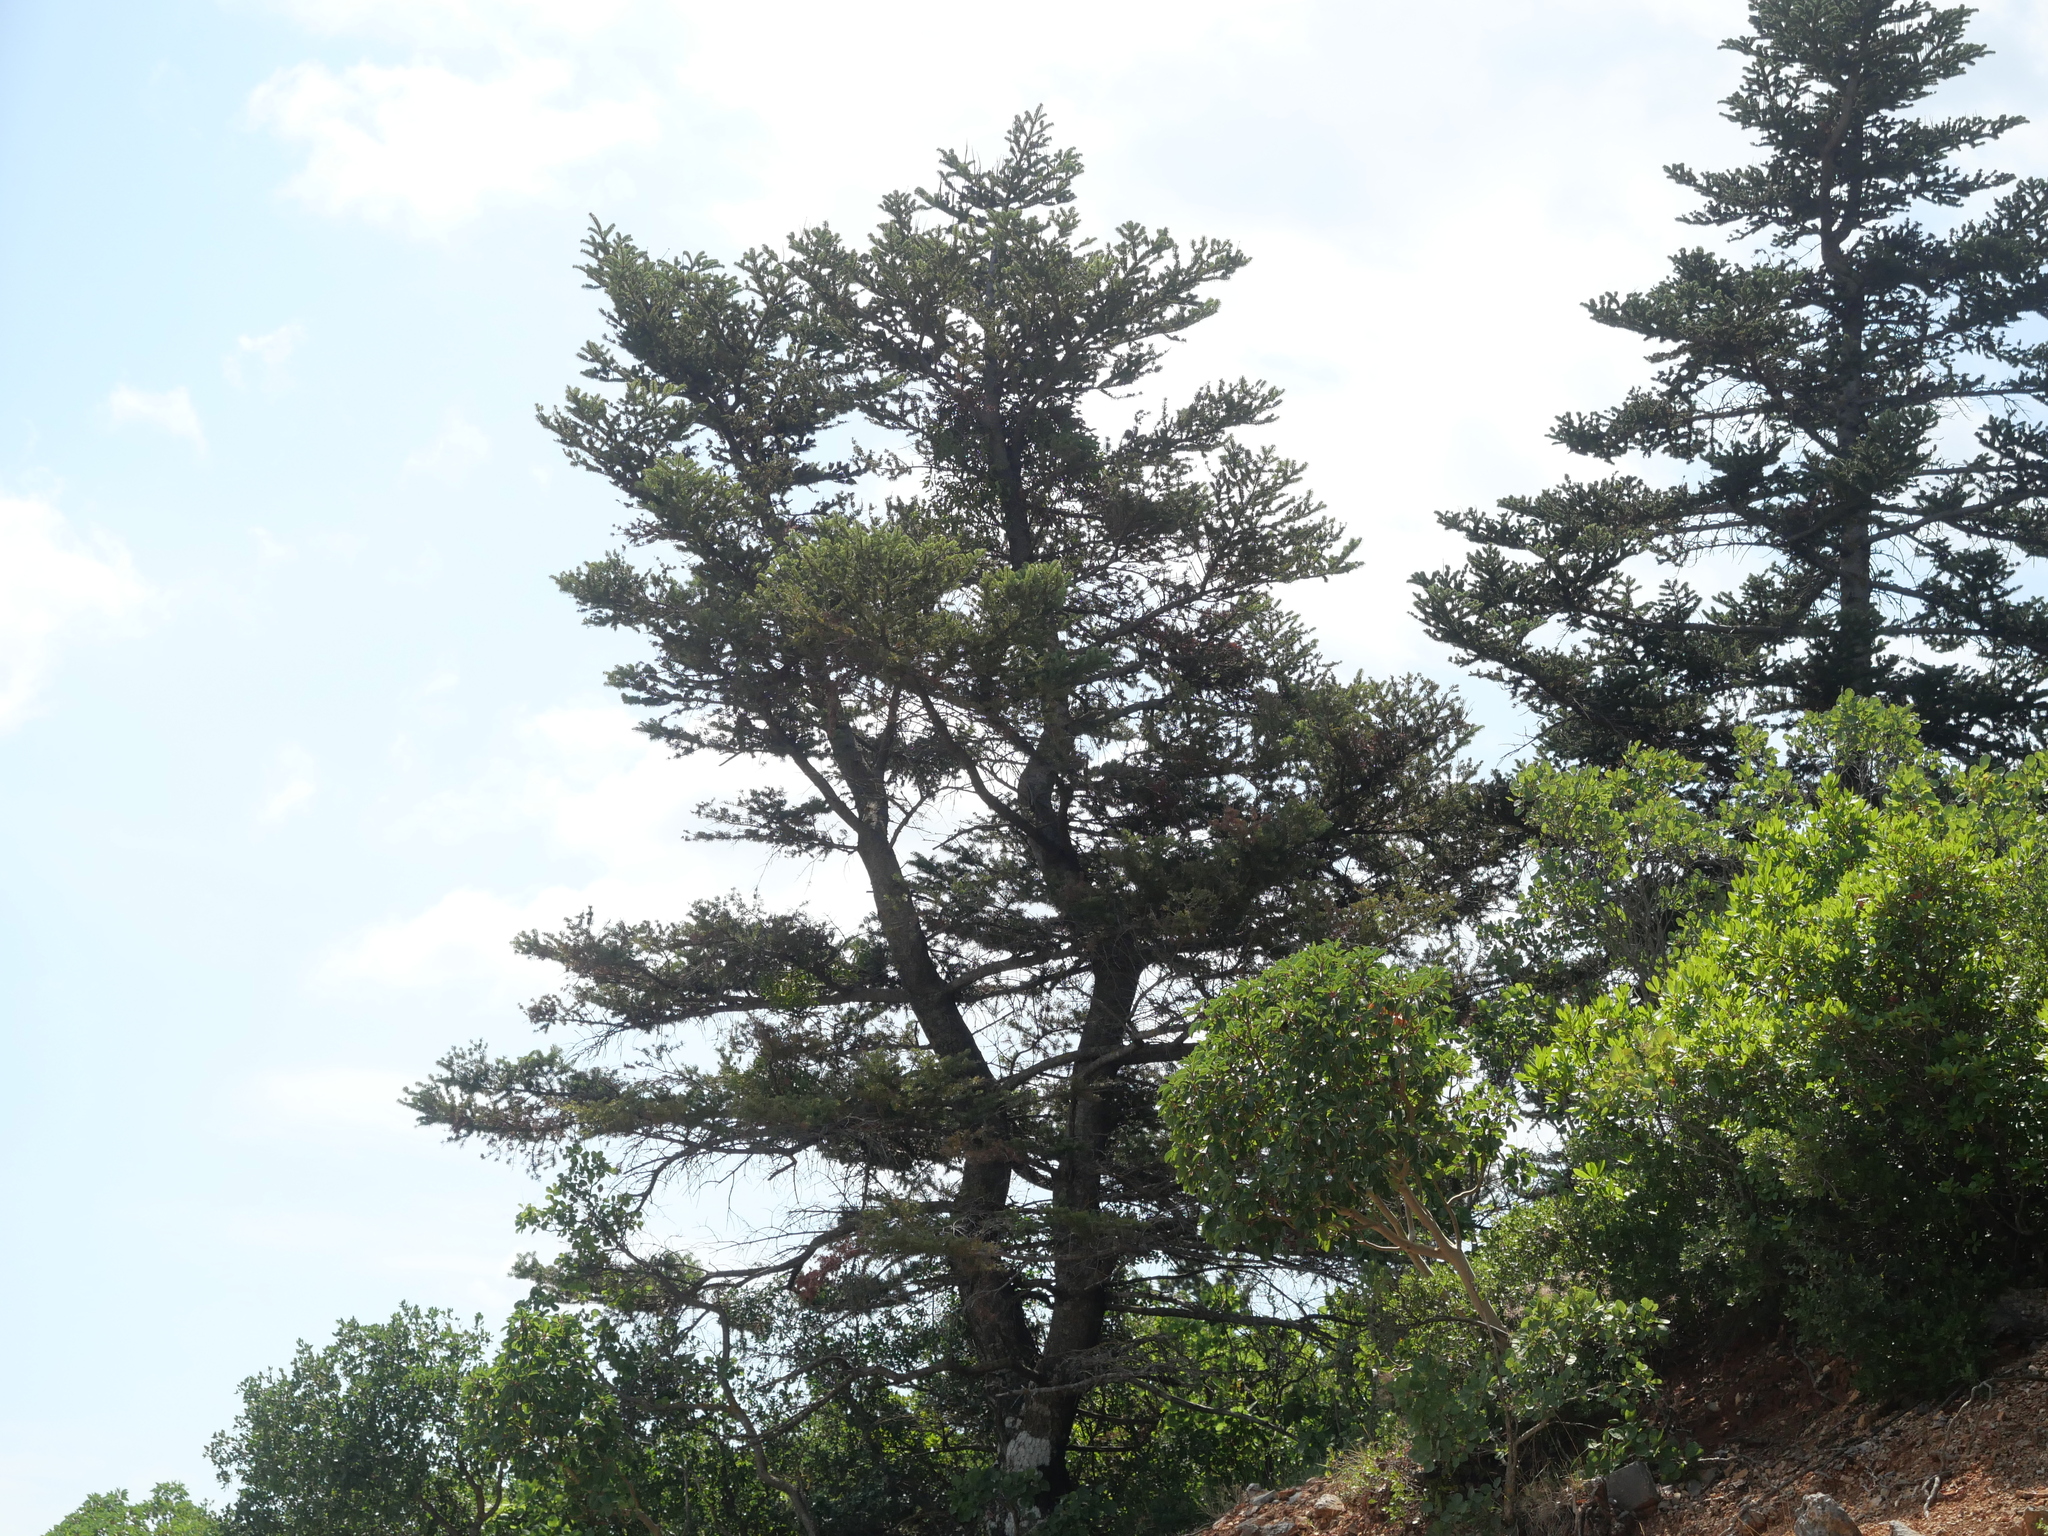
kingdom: Plantae
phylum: Tracheophyta
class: Pinopsida
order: Pinales
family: Pinaceae
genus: Abies
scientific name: Abies cephalonica
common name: Greek fir
